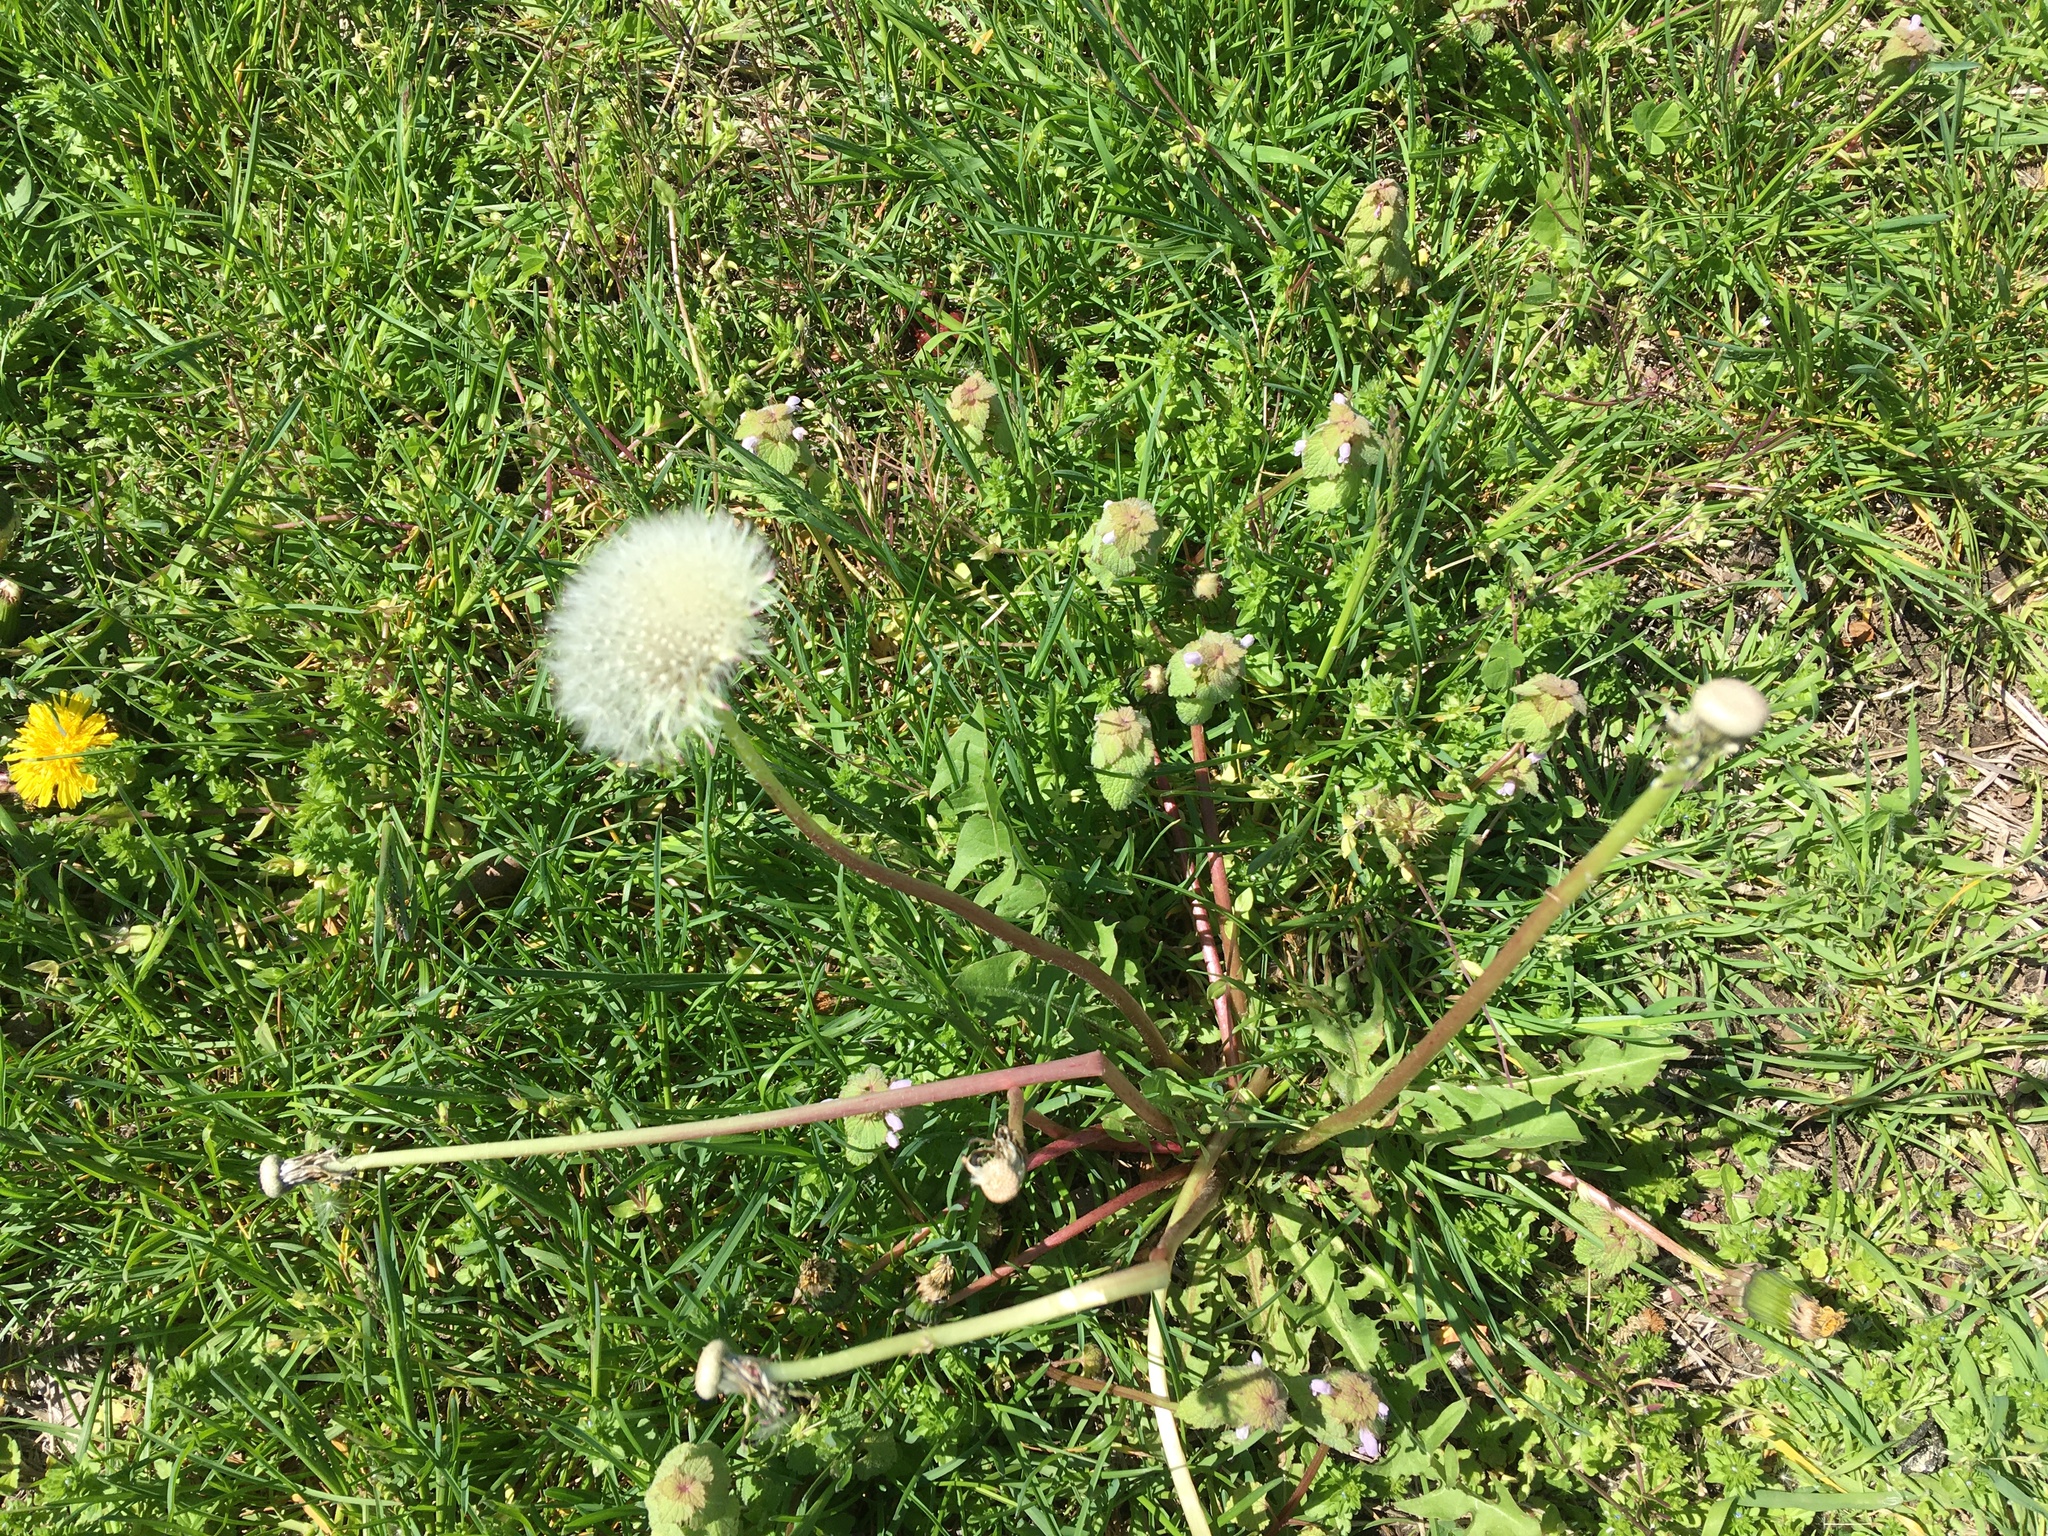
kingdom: Plantae
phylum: Tracheophyta
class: Magnoliopsida
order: Asterales
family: Asteraceae
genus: Taraxacum
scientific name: Taraxacum officinale
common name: Common dandelion
